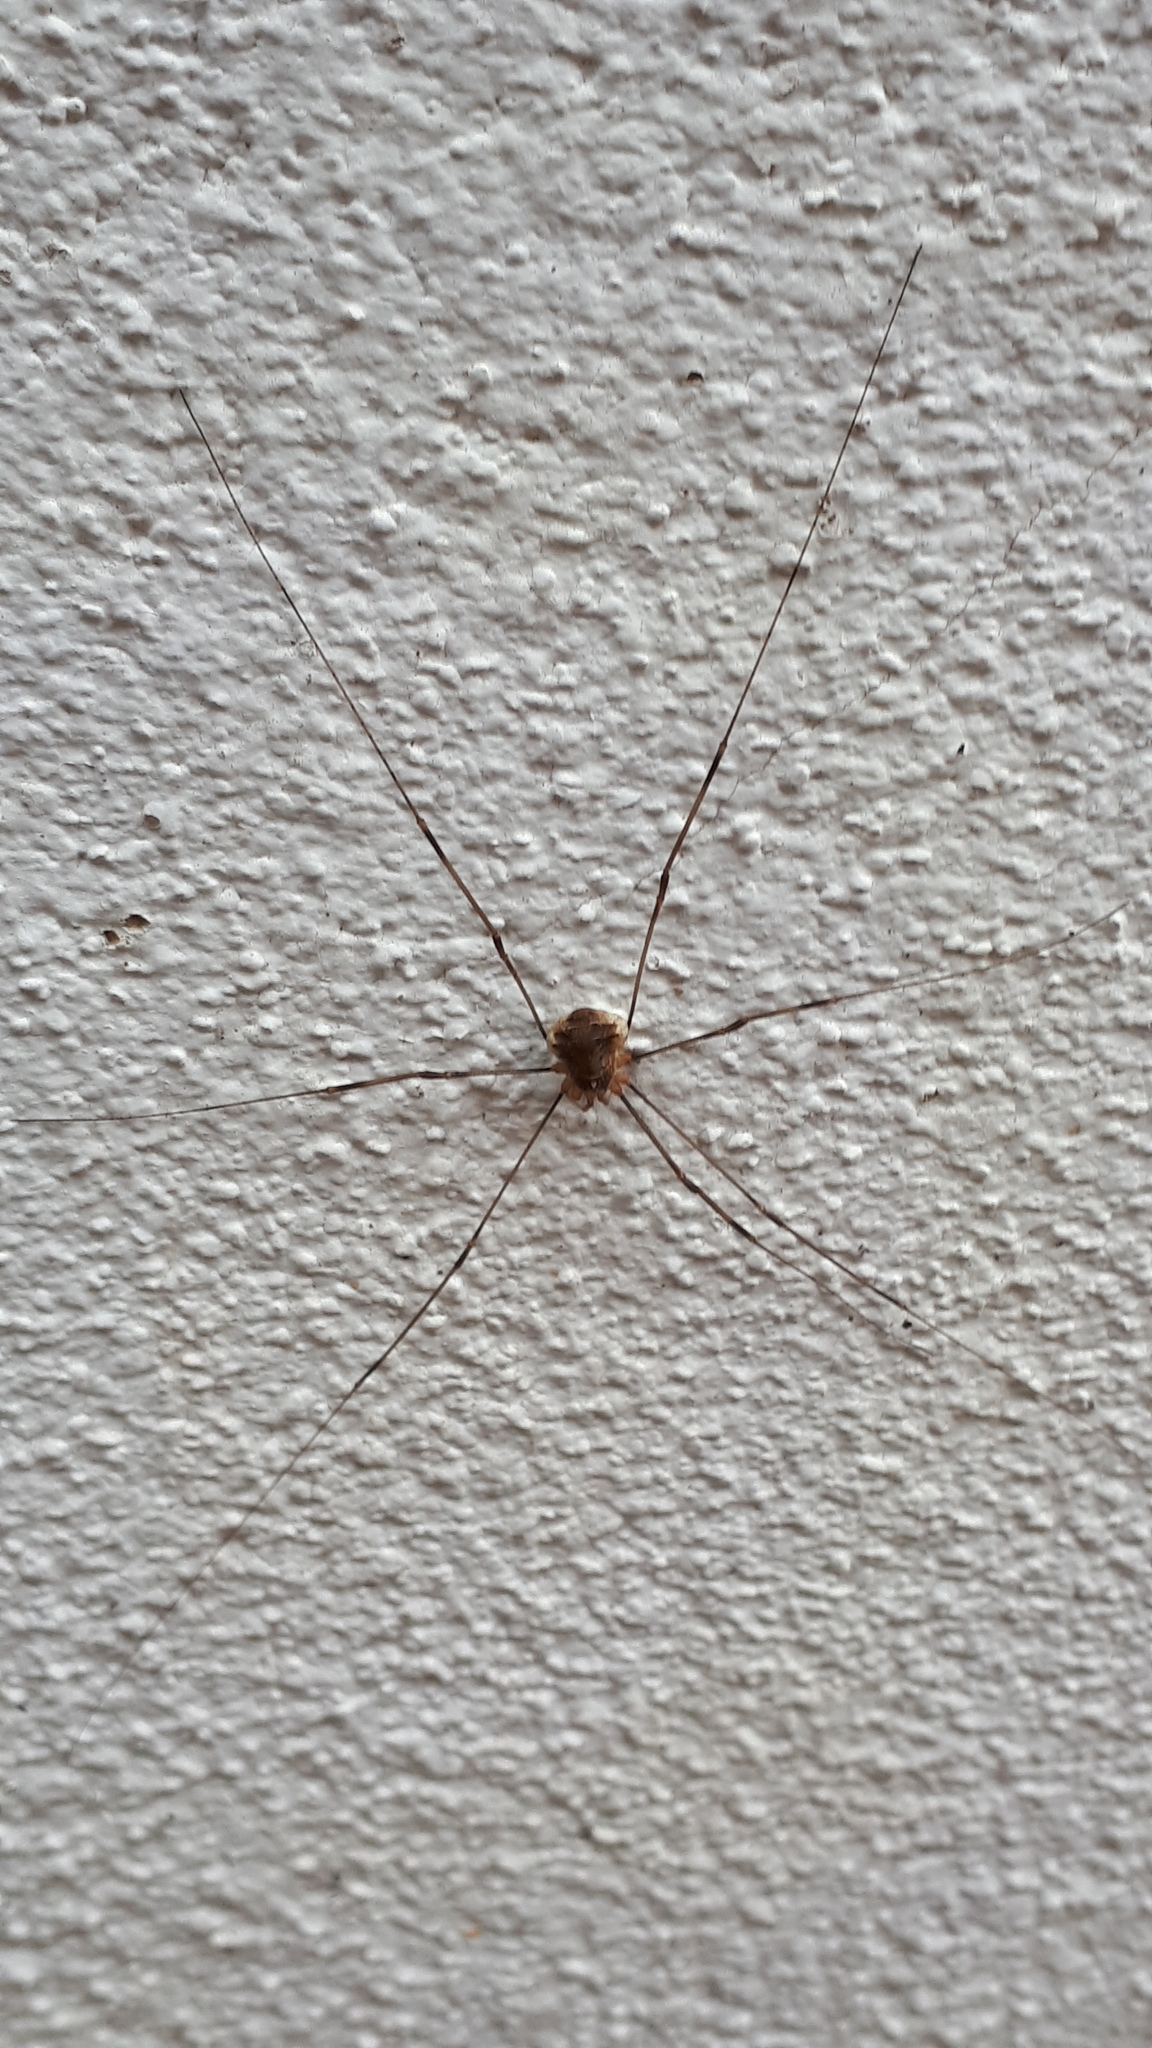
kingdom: Animalia
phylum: Arthropoda
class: Arachnida
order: Opiliones
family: Phalangiidae
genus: Opilio
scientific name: Opilio canestrinii
